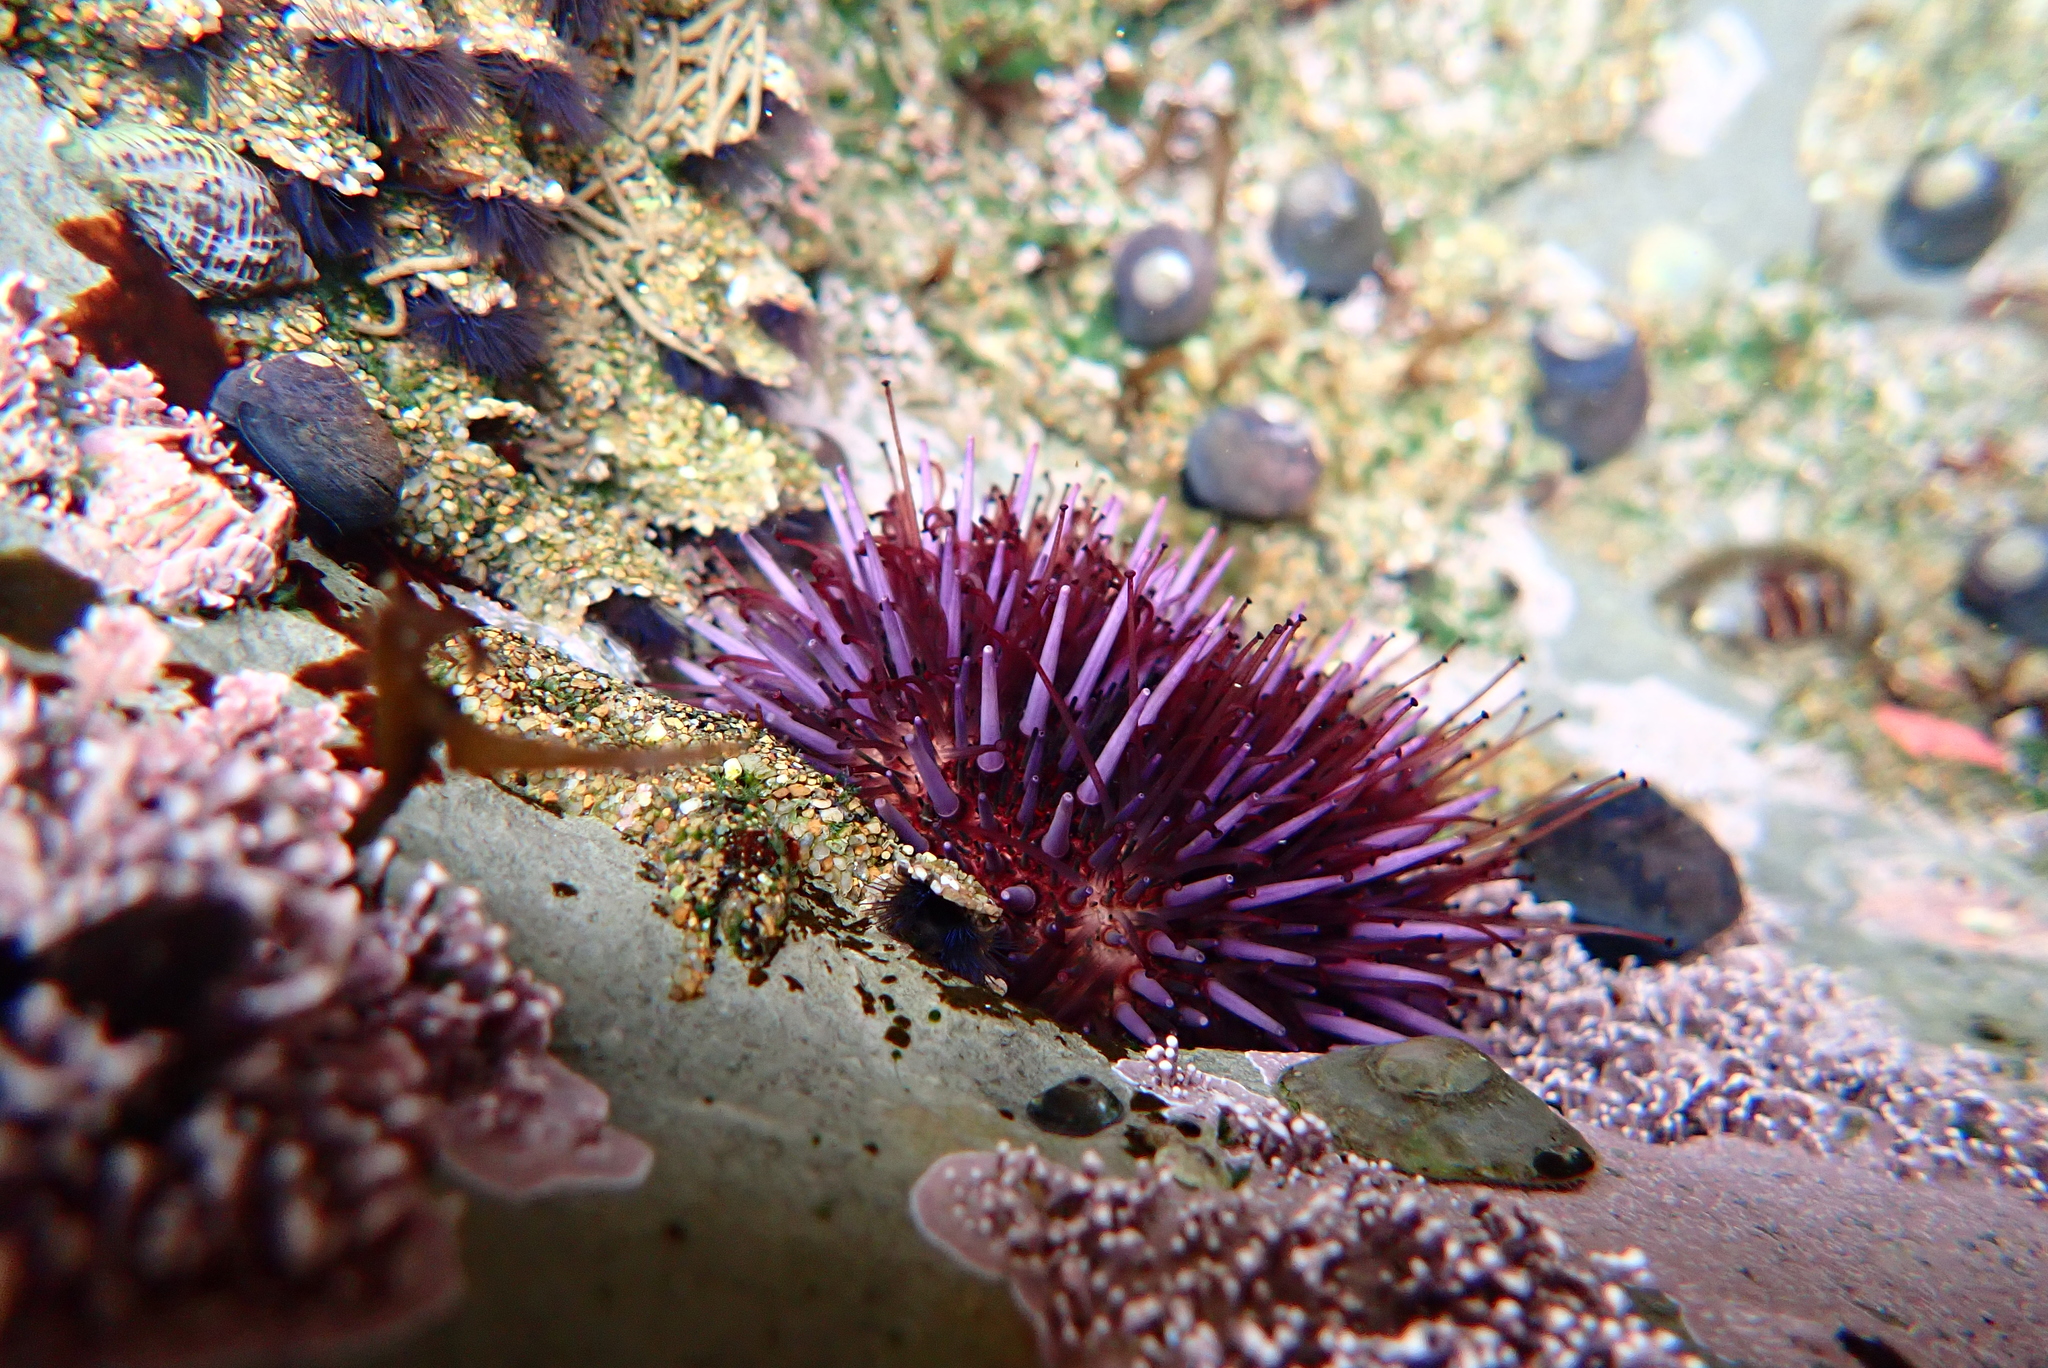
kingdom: Animalia
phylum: Echinodermata
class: Echinoidea
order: Camarodonta
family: Strongylocentrotidae
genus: Strongylocentrotus
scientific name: Strongylocentrotus purpuratus
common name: Purple sea urchin
